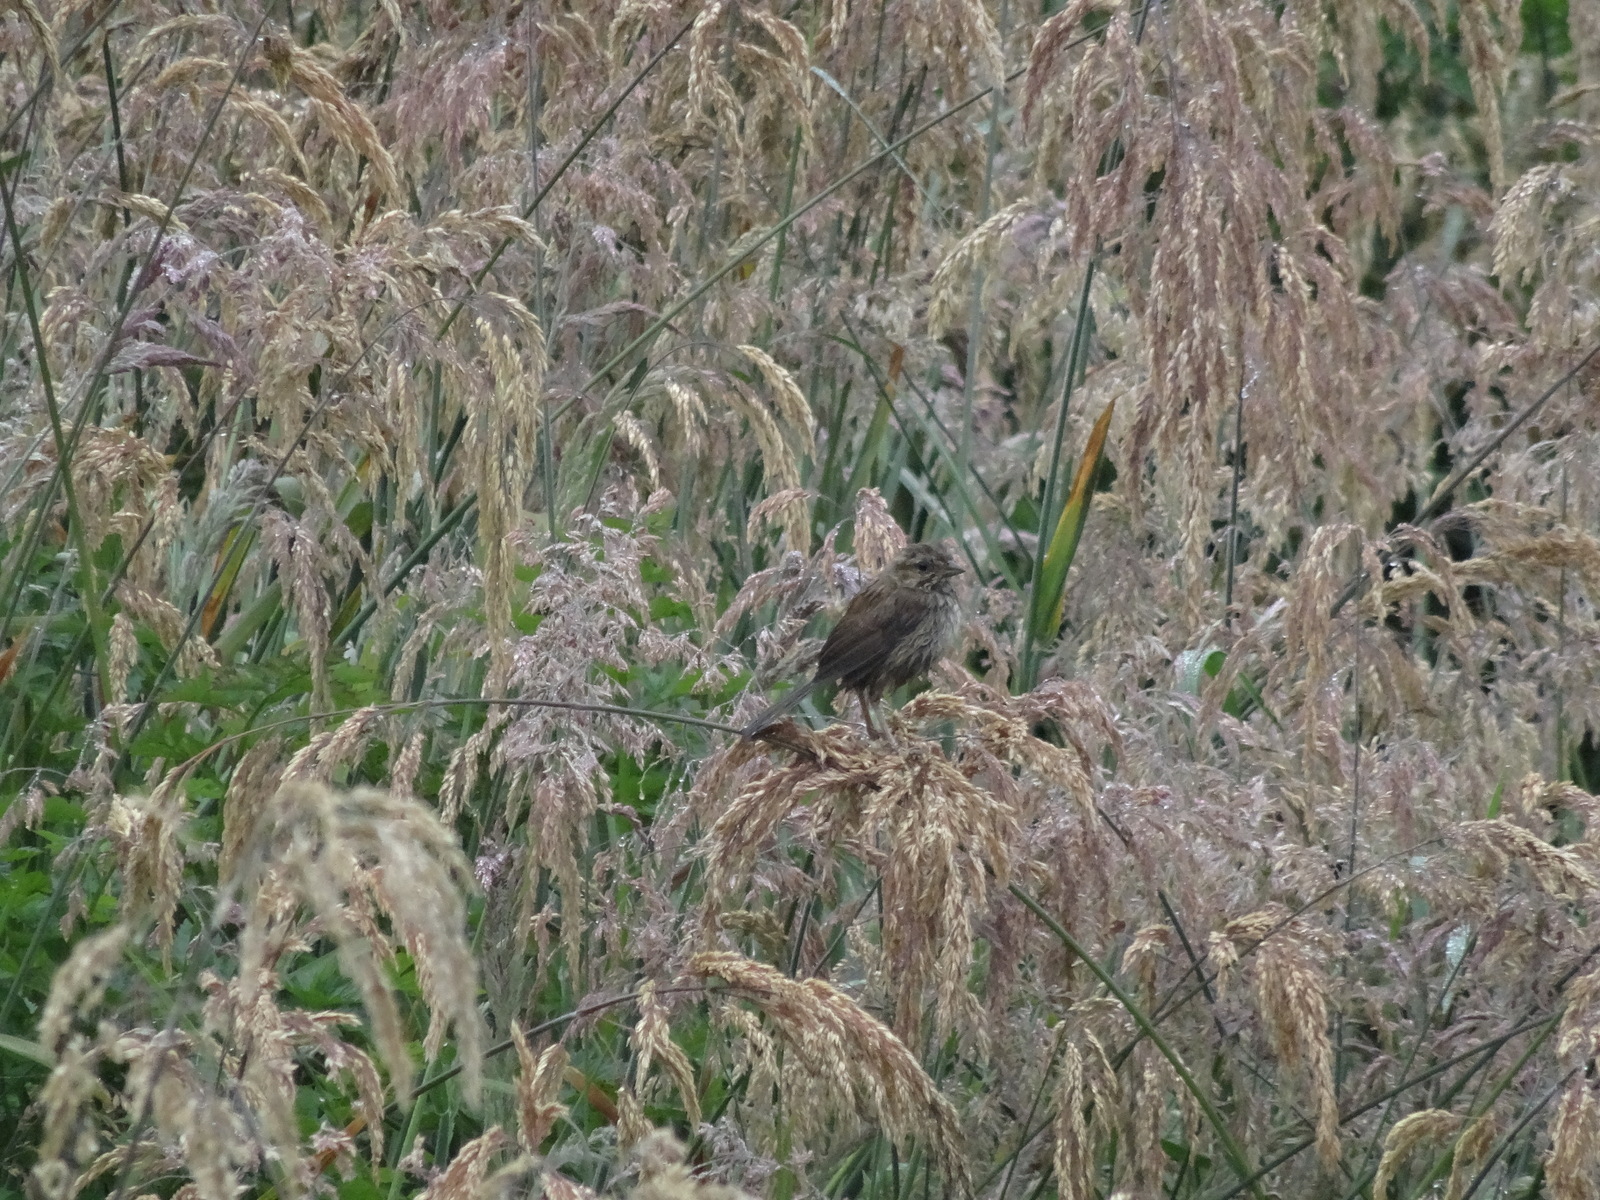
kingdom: Animalia
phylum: Chordata
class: Aves
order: Passeriformes
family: Passerellidae
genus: Melospiza
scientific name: Melospiza melodia
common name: Song sparrow
